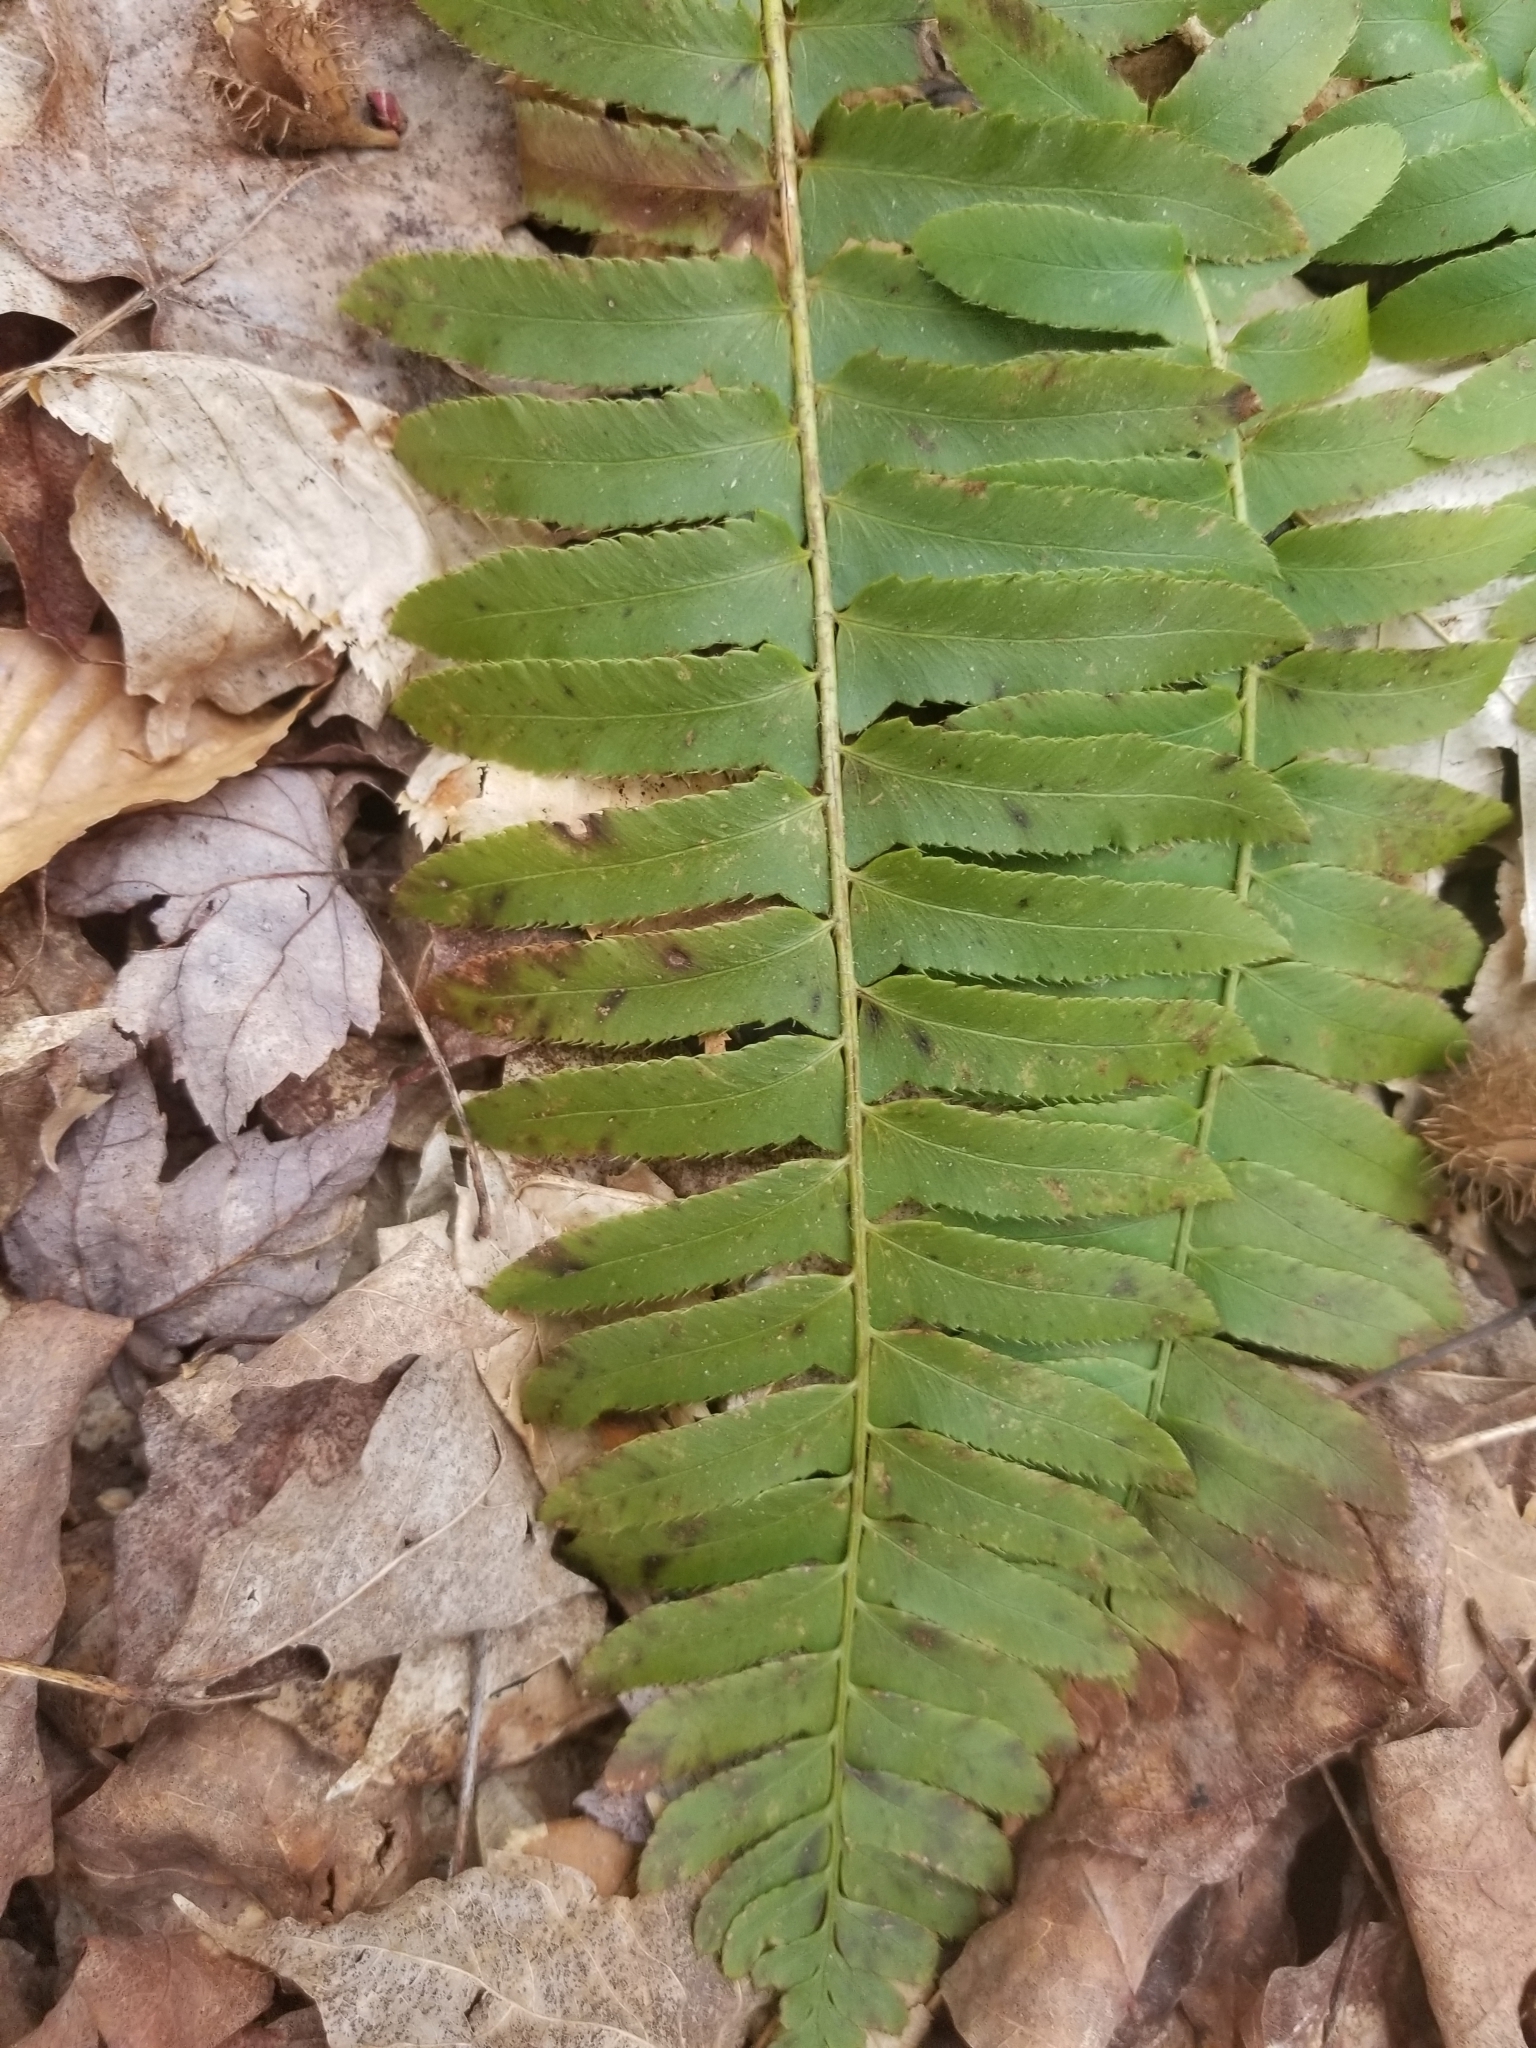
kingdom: Plantae
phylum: Tracheophyta
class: Polypodiopsida
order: Polypodiales
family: Dryopteridaceae
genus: Polystichum
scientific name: Polystichum acrostichoides
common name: Christmas fern
